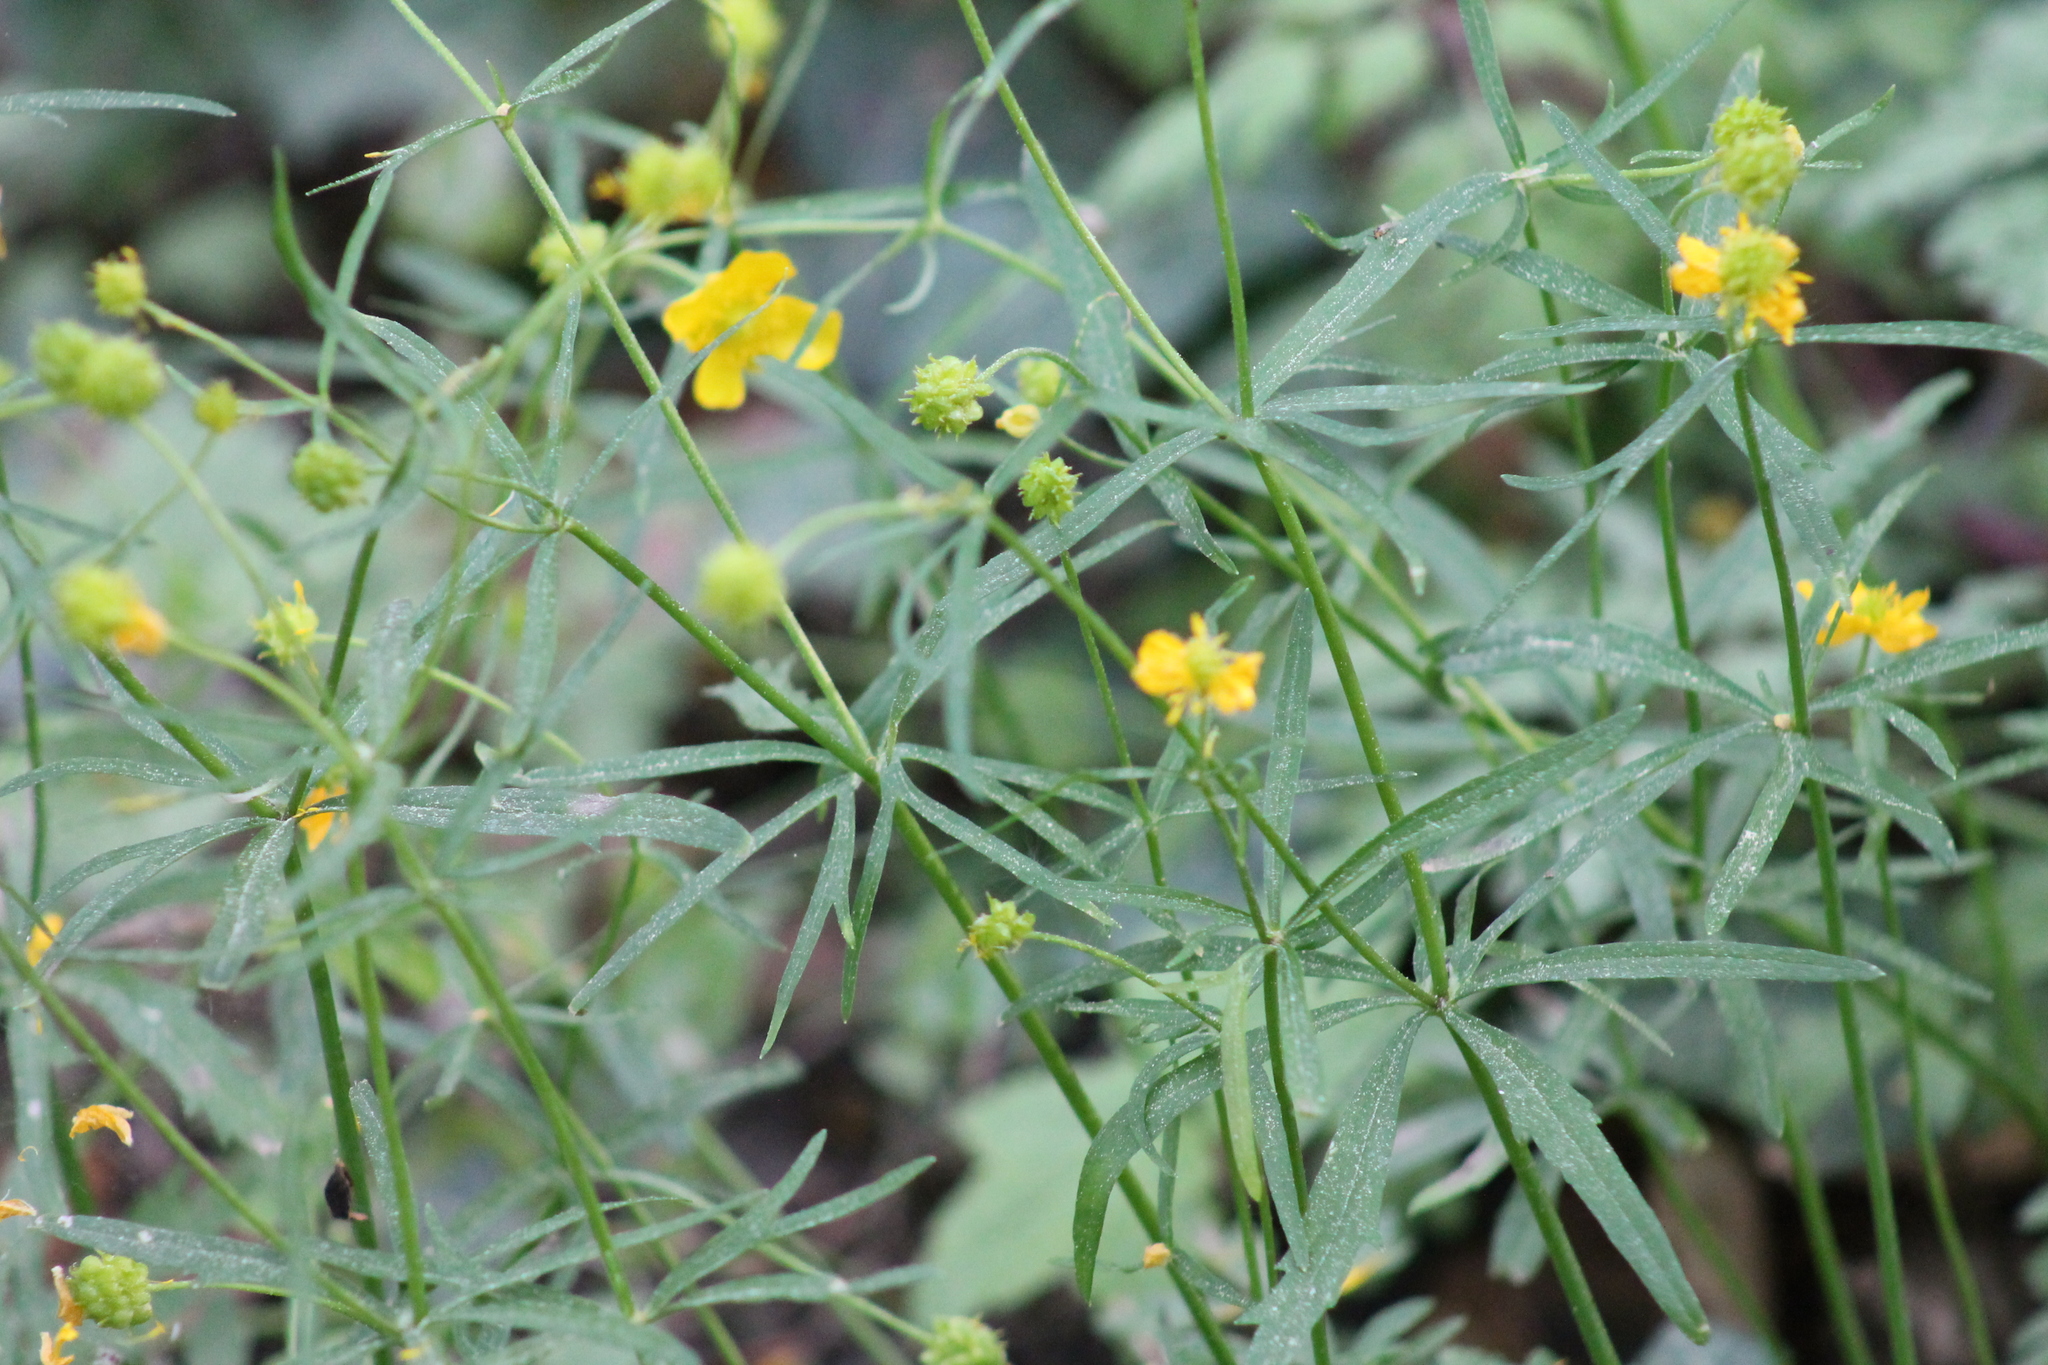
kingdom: Plantae
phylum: Tracheophyta
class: Magnoliopsida
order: Ranunculales
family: Ranunculaceae
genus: Ranunculus
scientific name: Ranunculus auricomus
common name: Goldilocks buttercup
